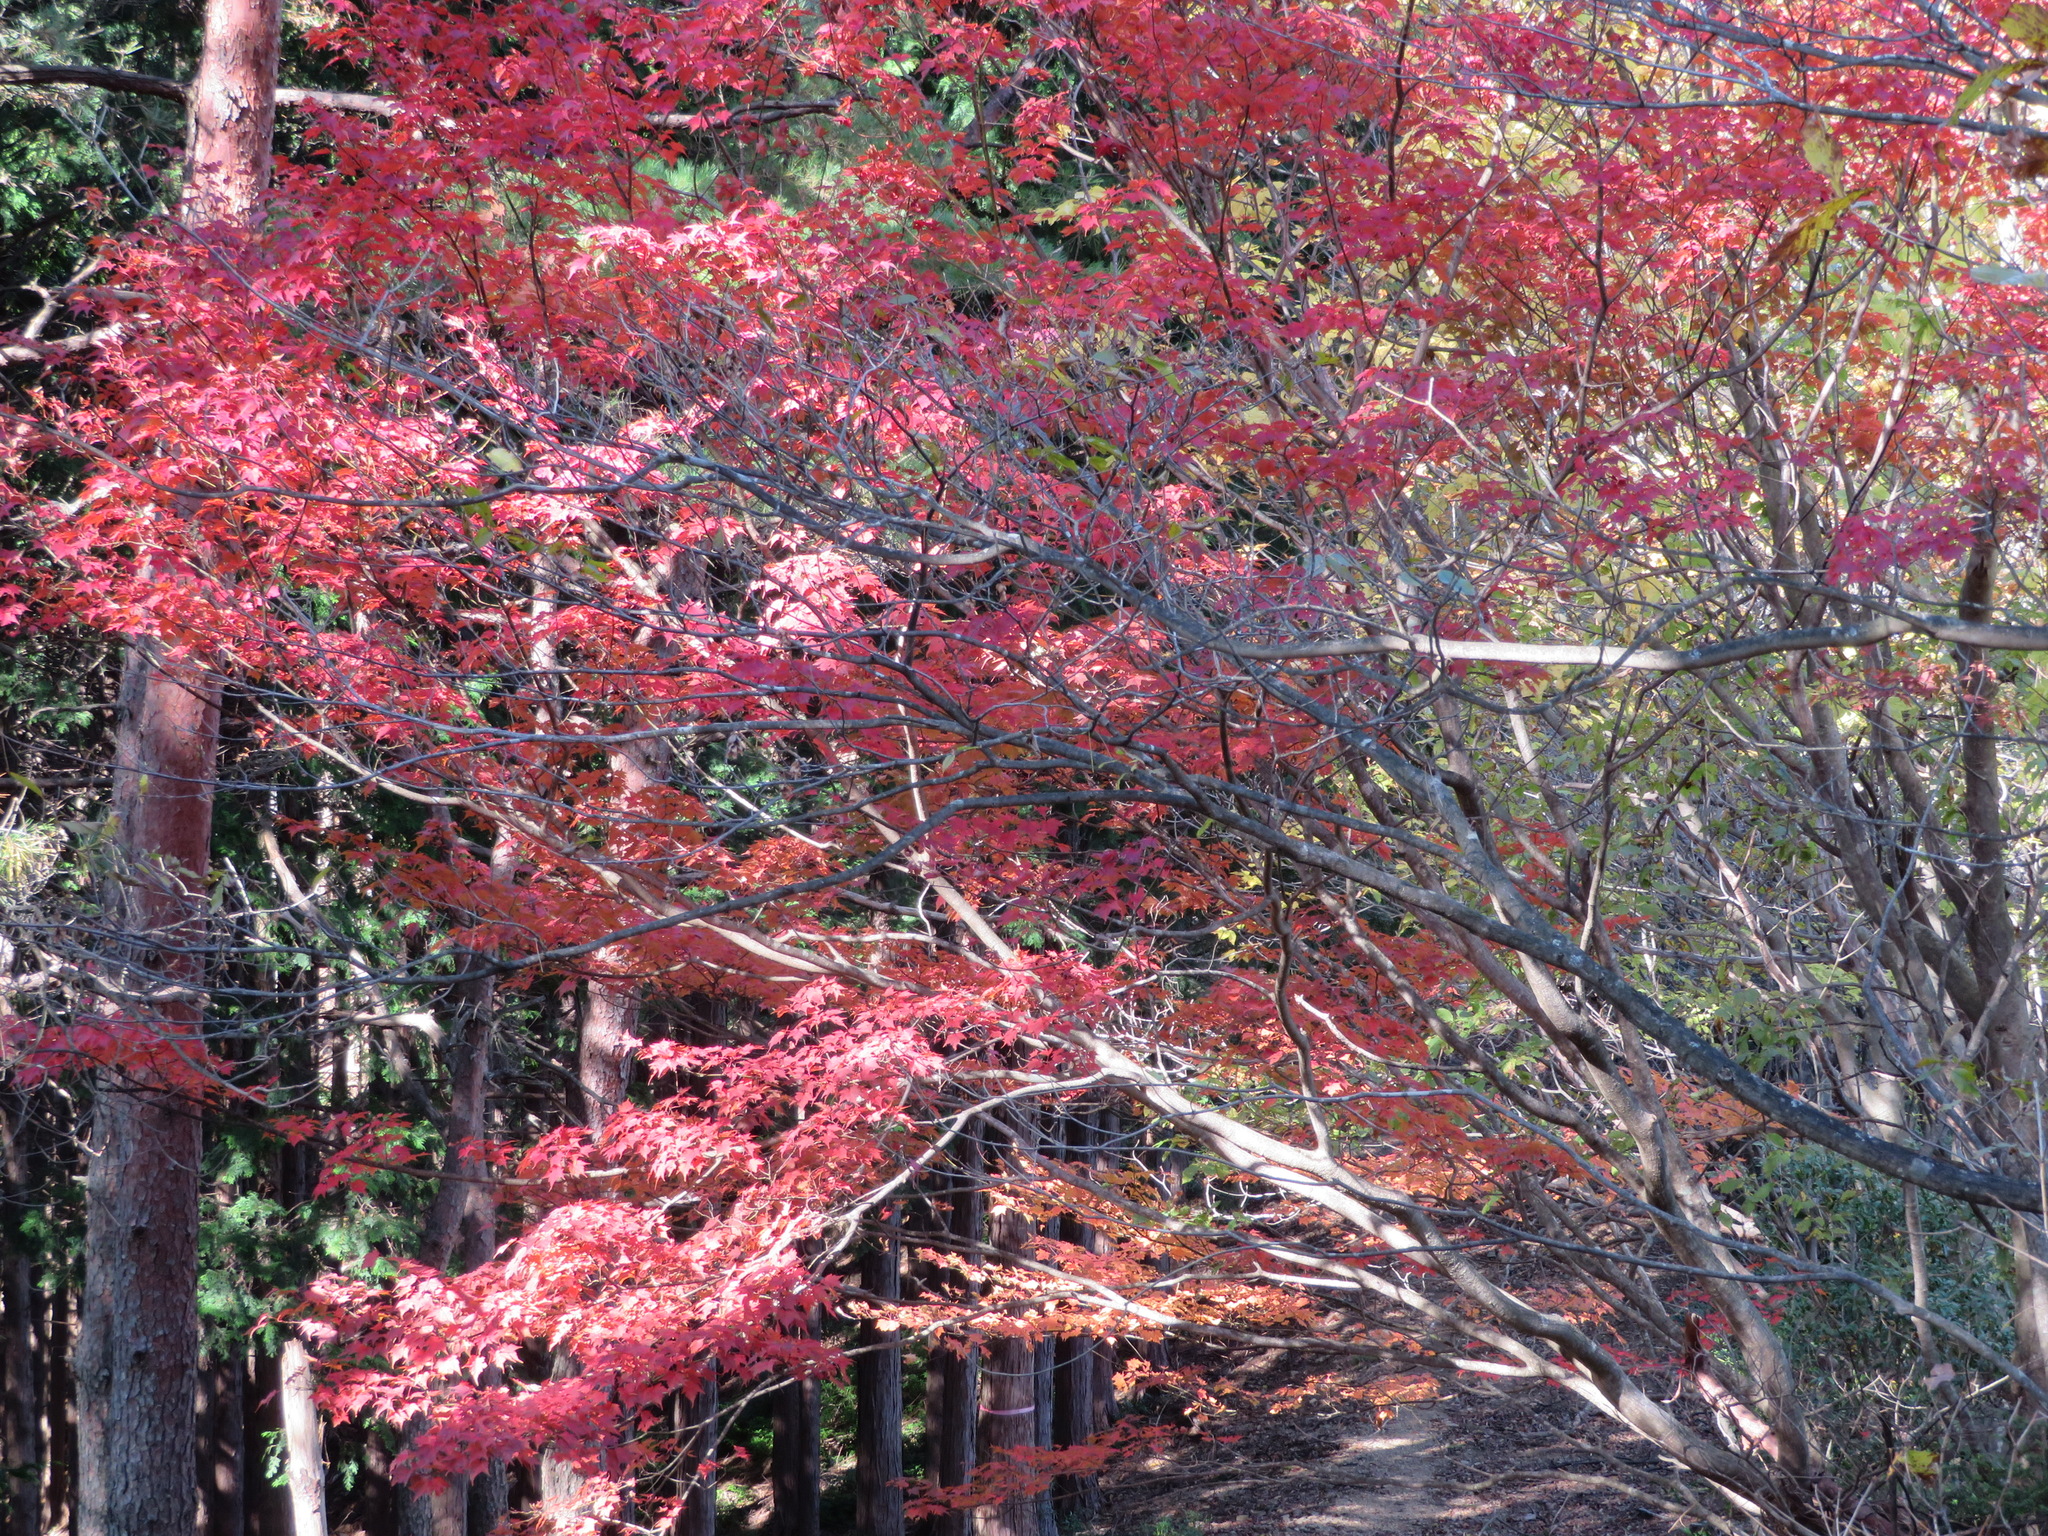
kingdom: Plantae
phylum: Tracheophyta
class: Magnoliopsida
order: Sapindales
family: Sapindaceae
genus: Acer
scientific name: Acer micranthum
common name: Komine maple
